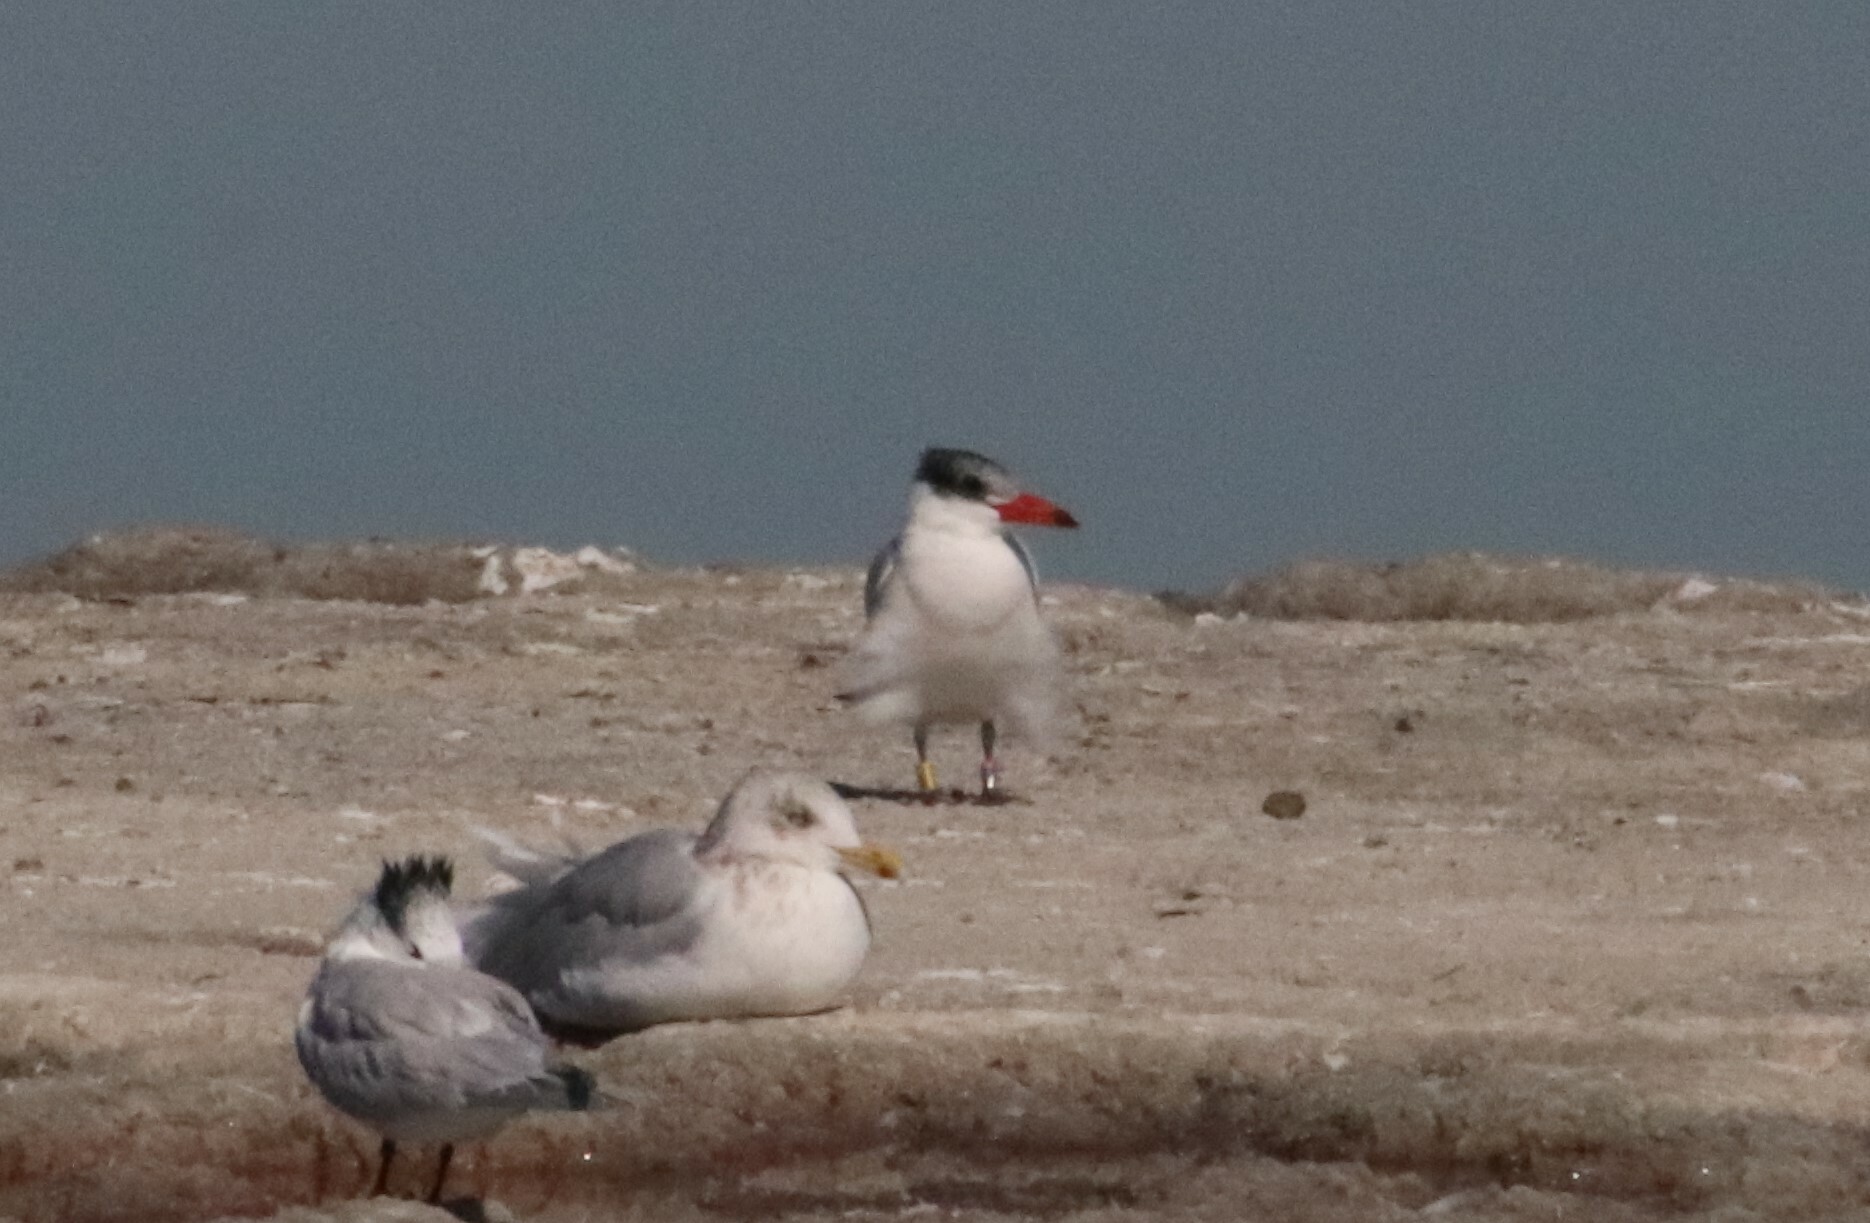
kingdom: Animalia
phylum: Chordata
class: Aves
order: Charadriiformes
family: Laridae
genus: Hydroprogne
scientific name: Hydroprogne caspia
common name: Caspian tern
